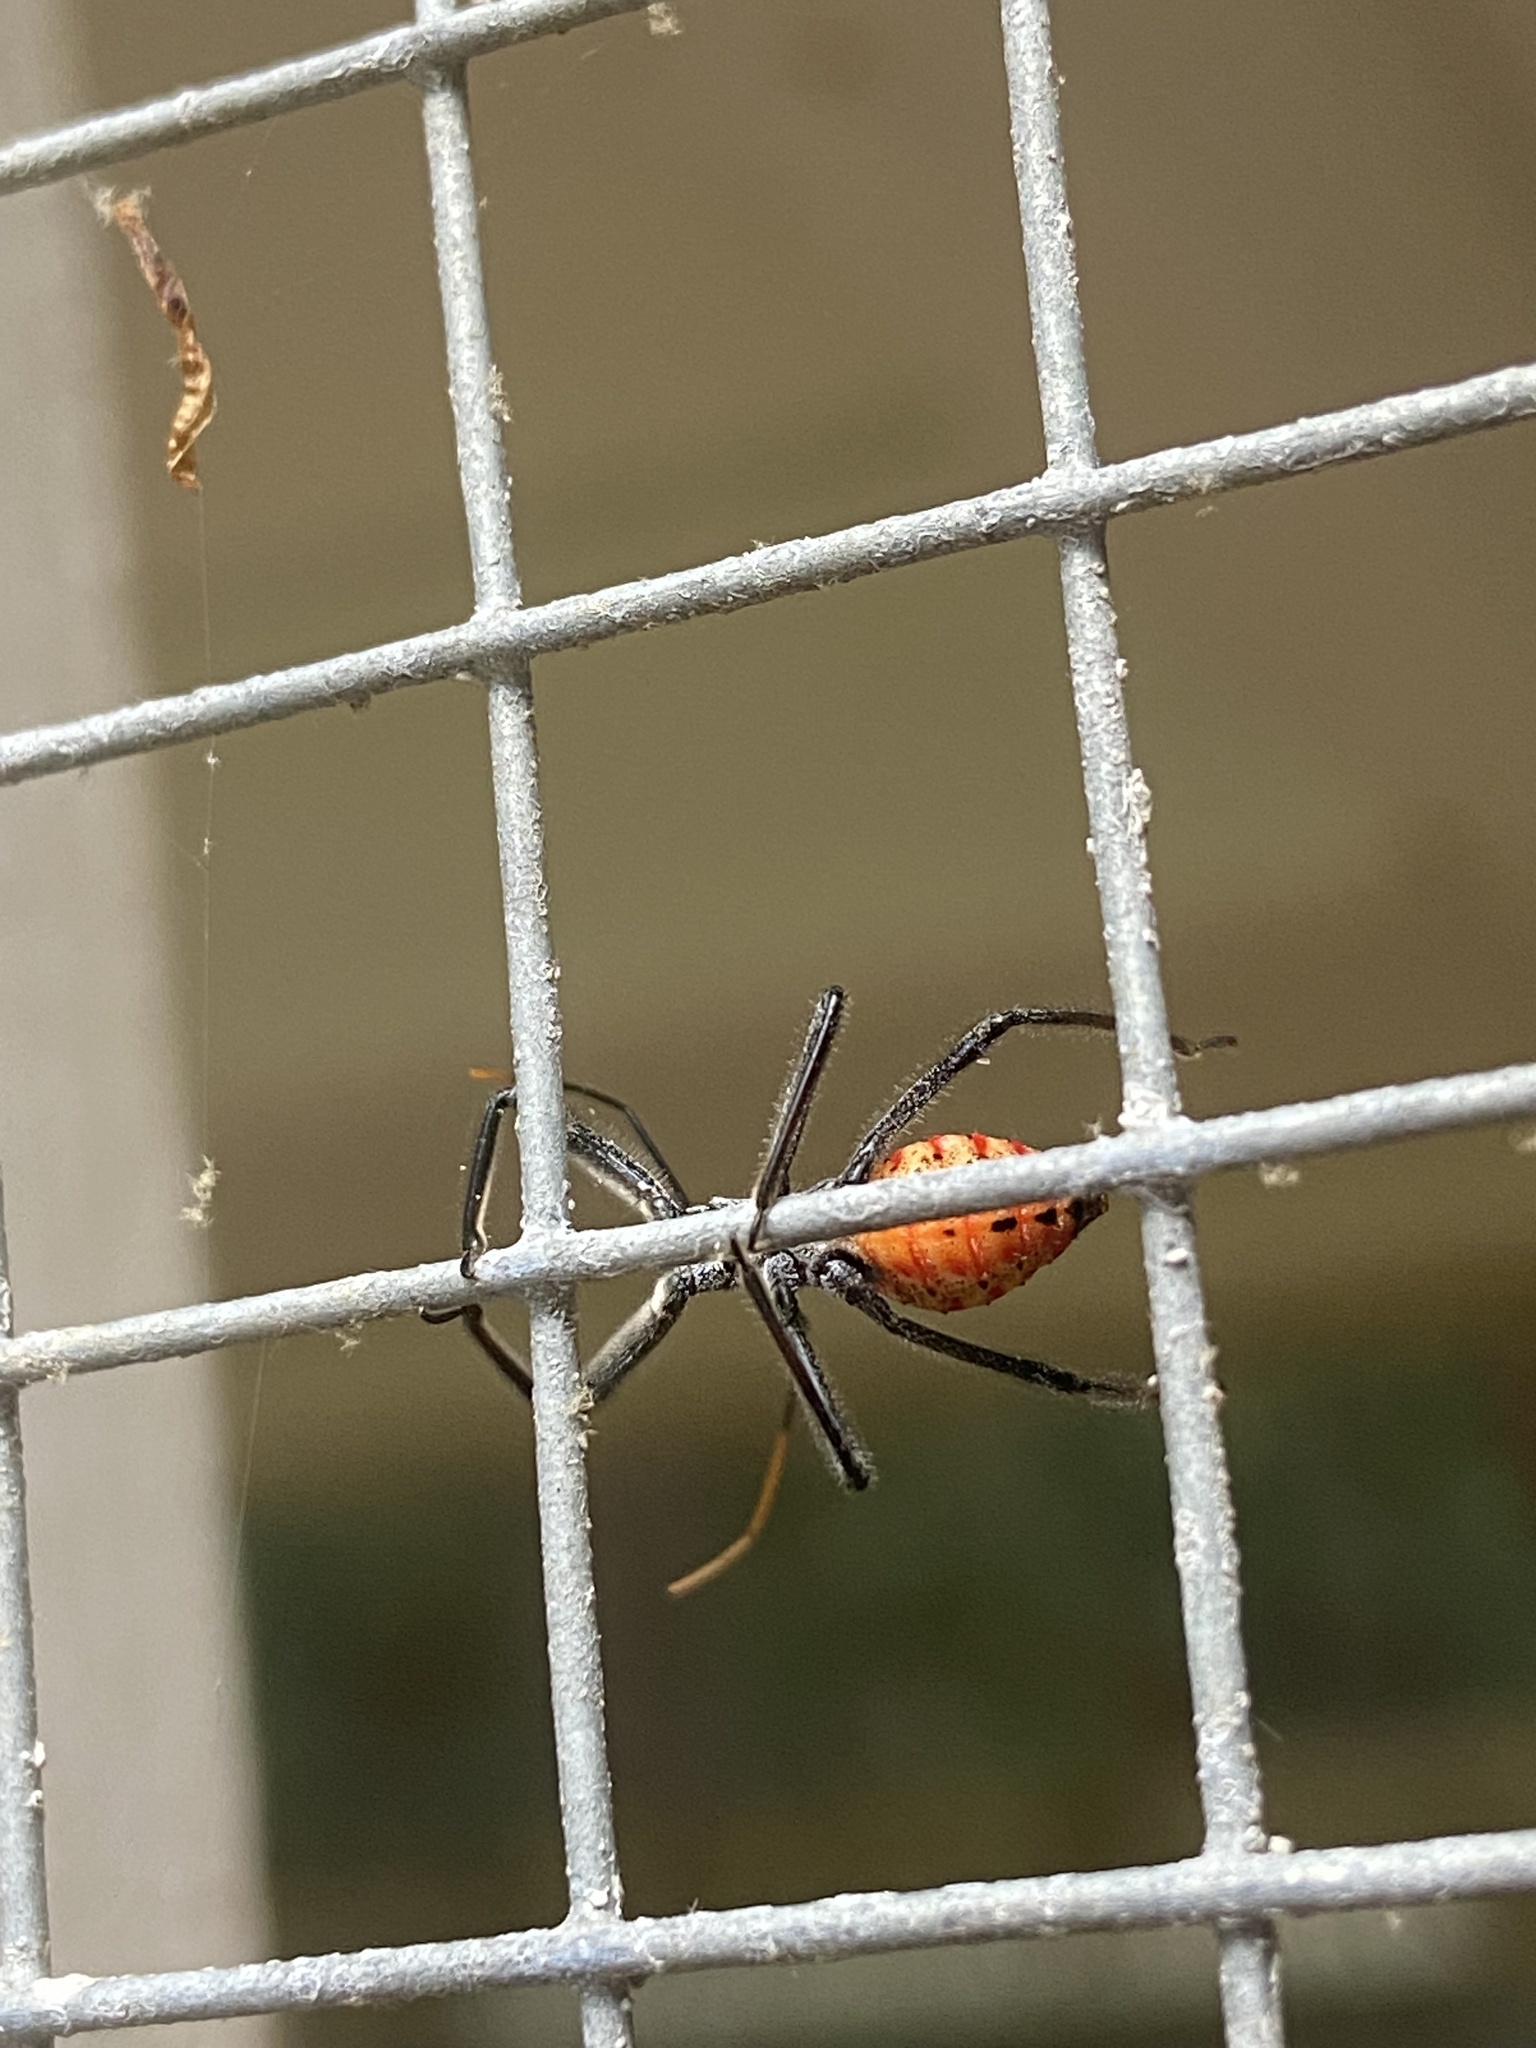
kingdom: Animalia
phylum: Arthropoda
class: Insecta
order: Hemiptera
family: Reduviidae
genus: Arilus
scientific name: Arilus cristatus
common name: North american wheel bug
